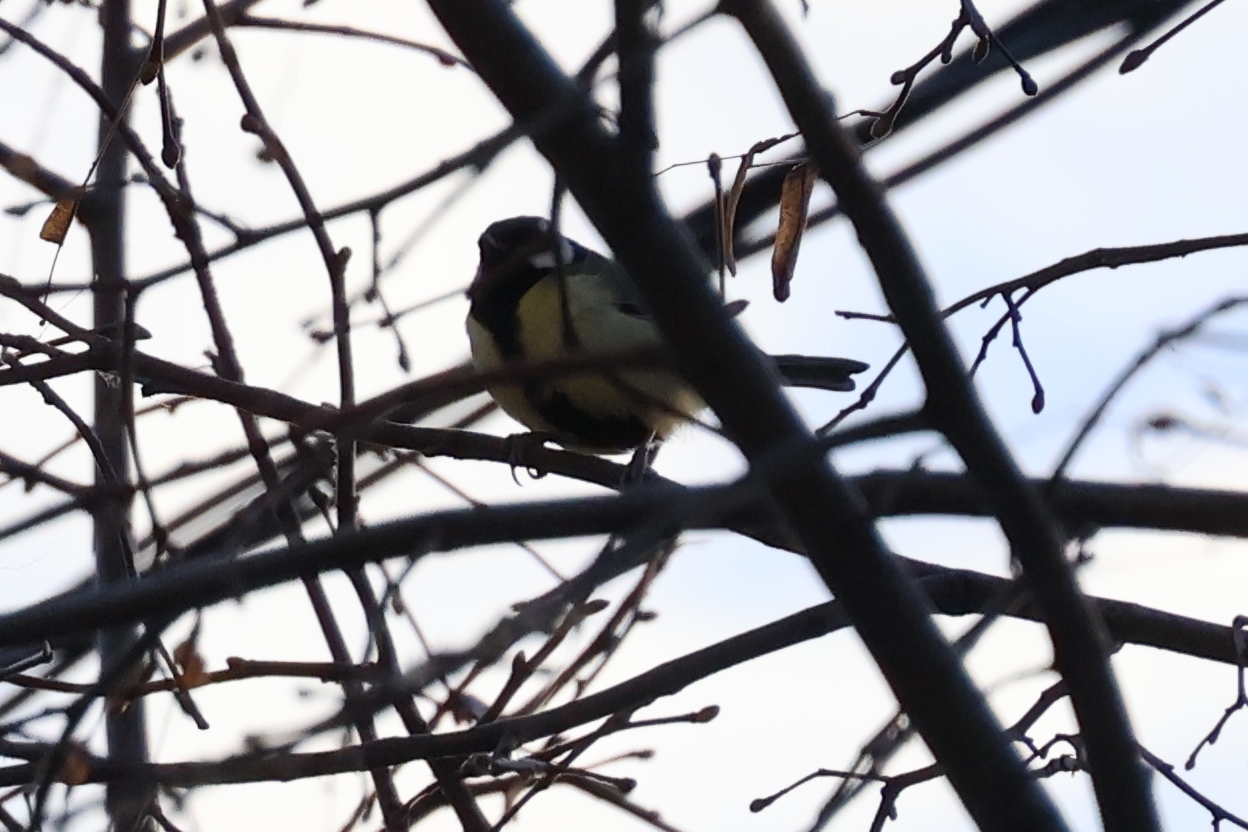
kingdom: Animalia
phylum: Chordata
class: Aves
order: Passeriformes
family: Paridae
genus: Parus
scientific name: Parus major
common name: Great tit
